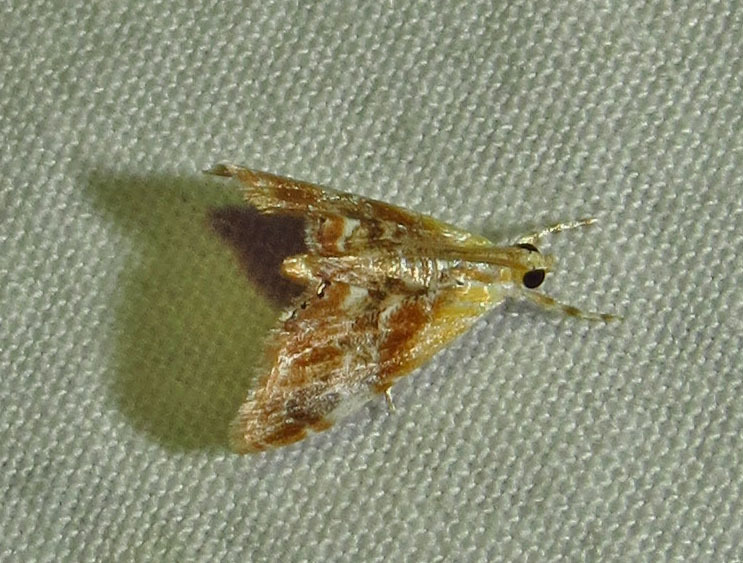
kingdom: Animalia
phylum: Arthropoda
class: Insecta
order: Lepidoptera
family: Crambidae
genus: Dicymolomia
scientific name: Dicymolomia julianalis
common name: Julia's dicymolomia moth
